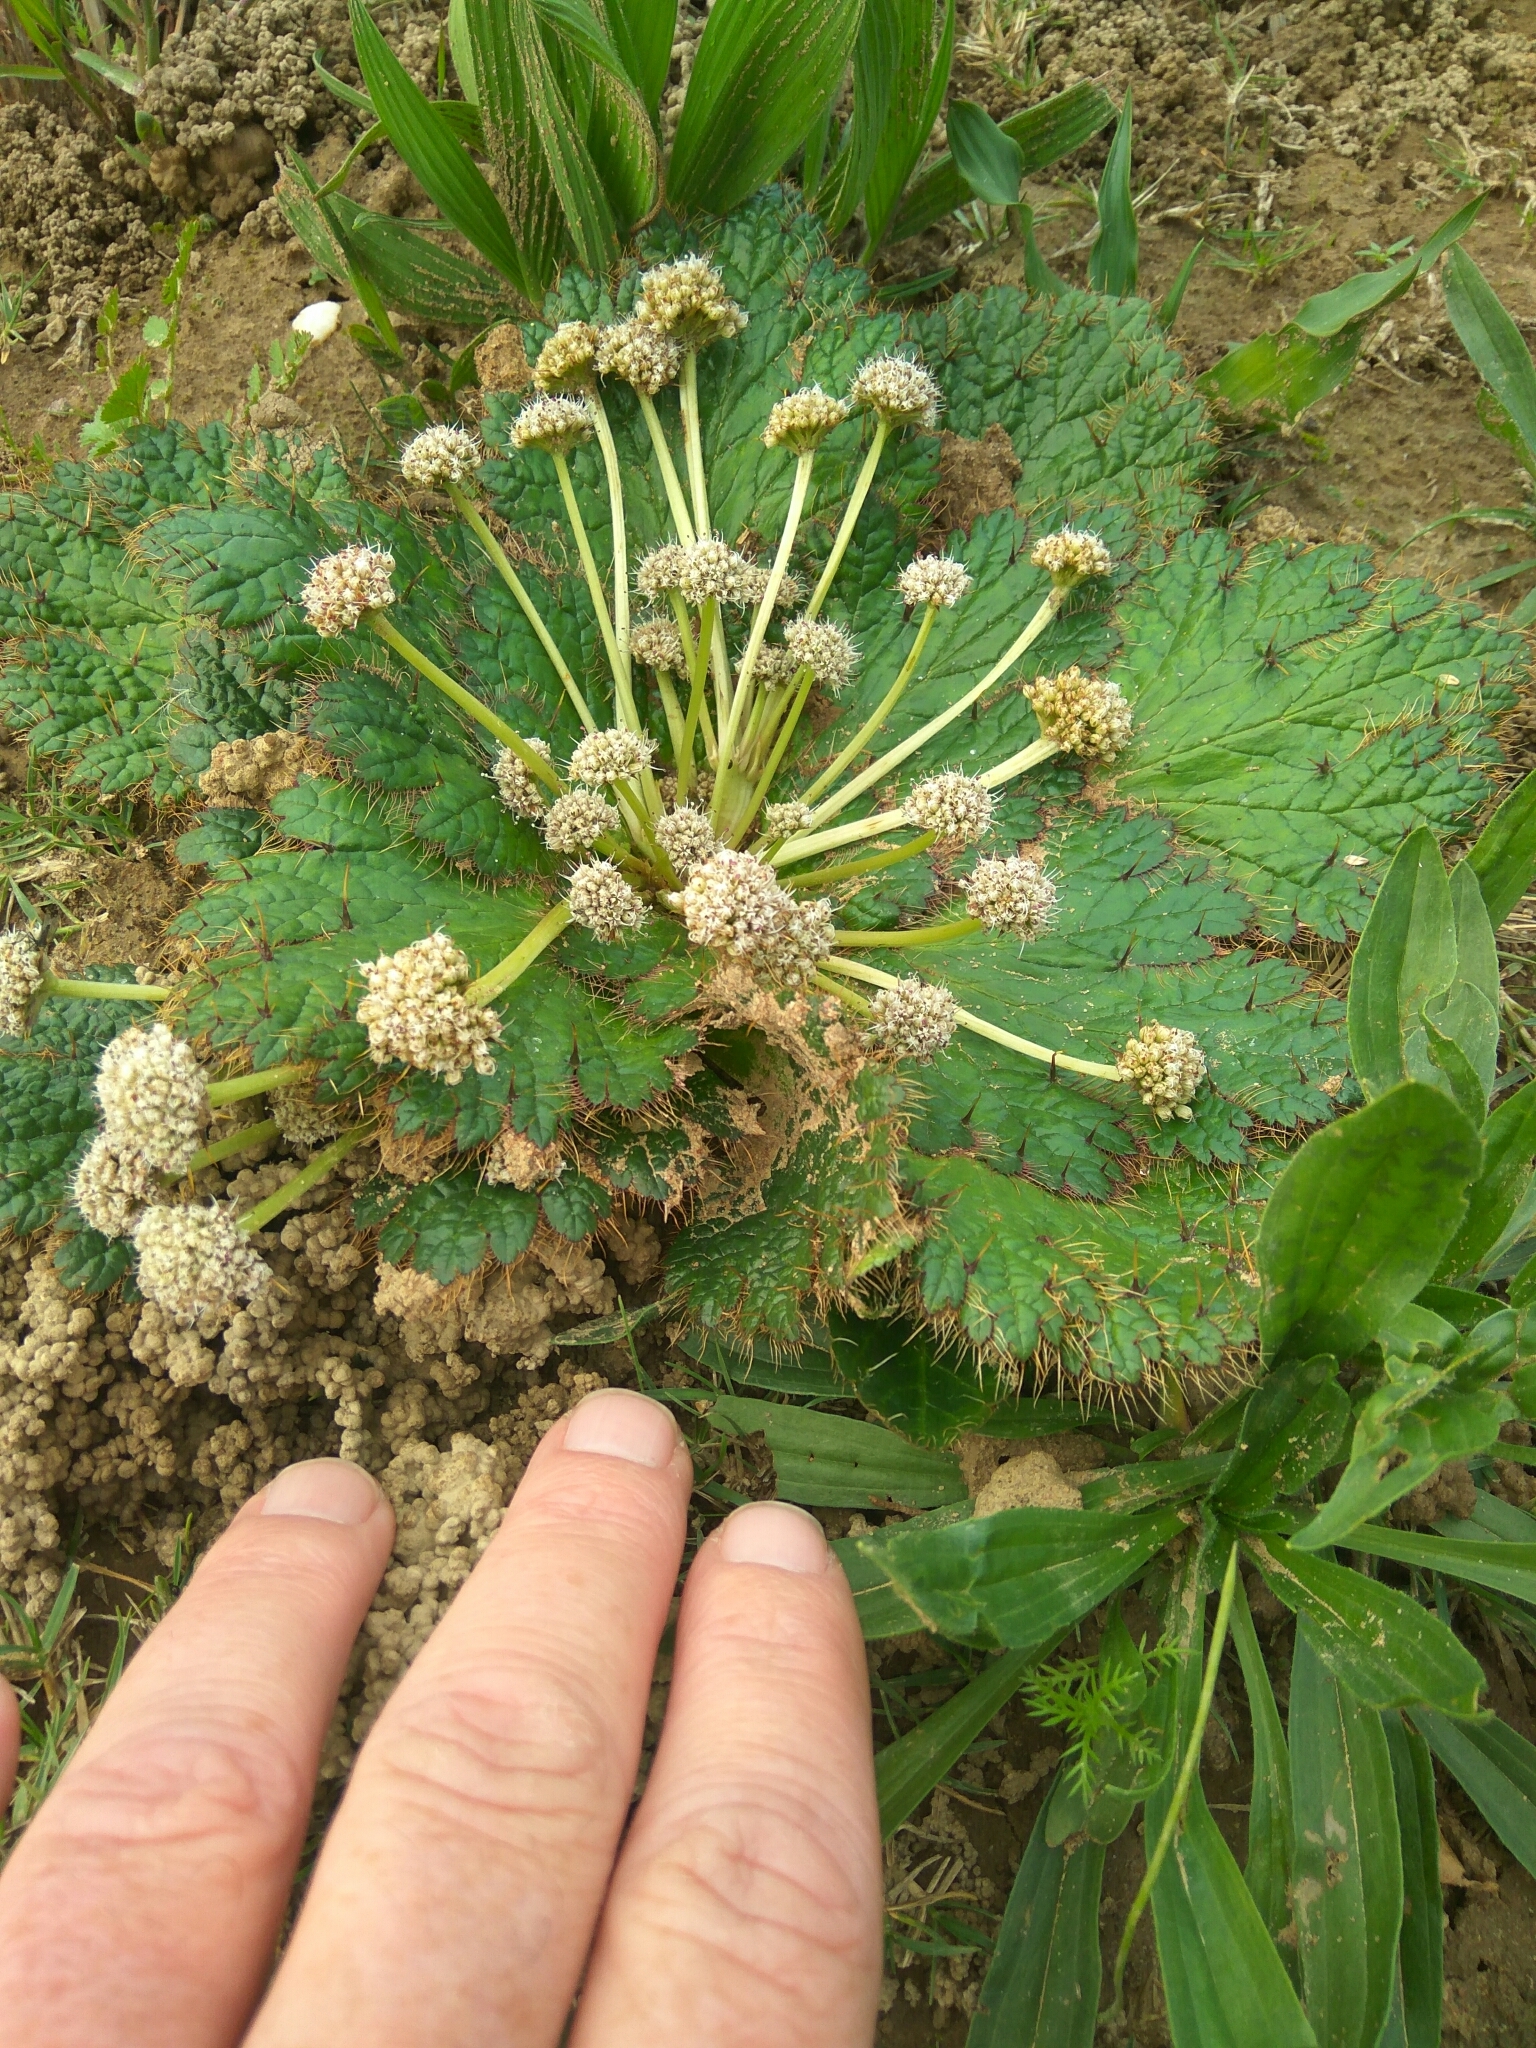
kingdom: Plantae
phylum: Tracheophyta
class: Magnoliopsida
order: Apiales
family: Apiaceae
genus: Arctopus
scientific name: Arctopus echinatus
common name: Platdoring
